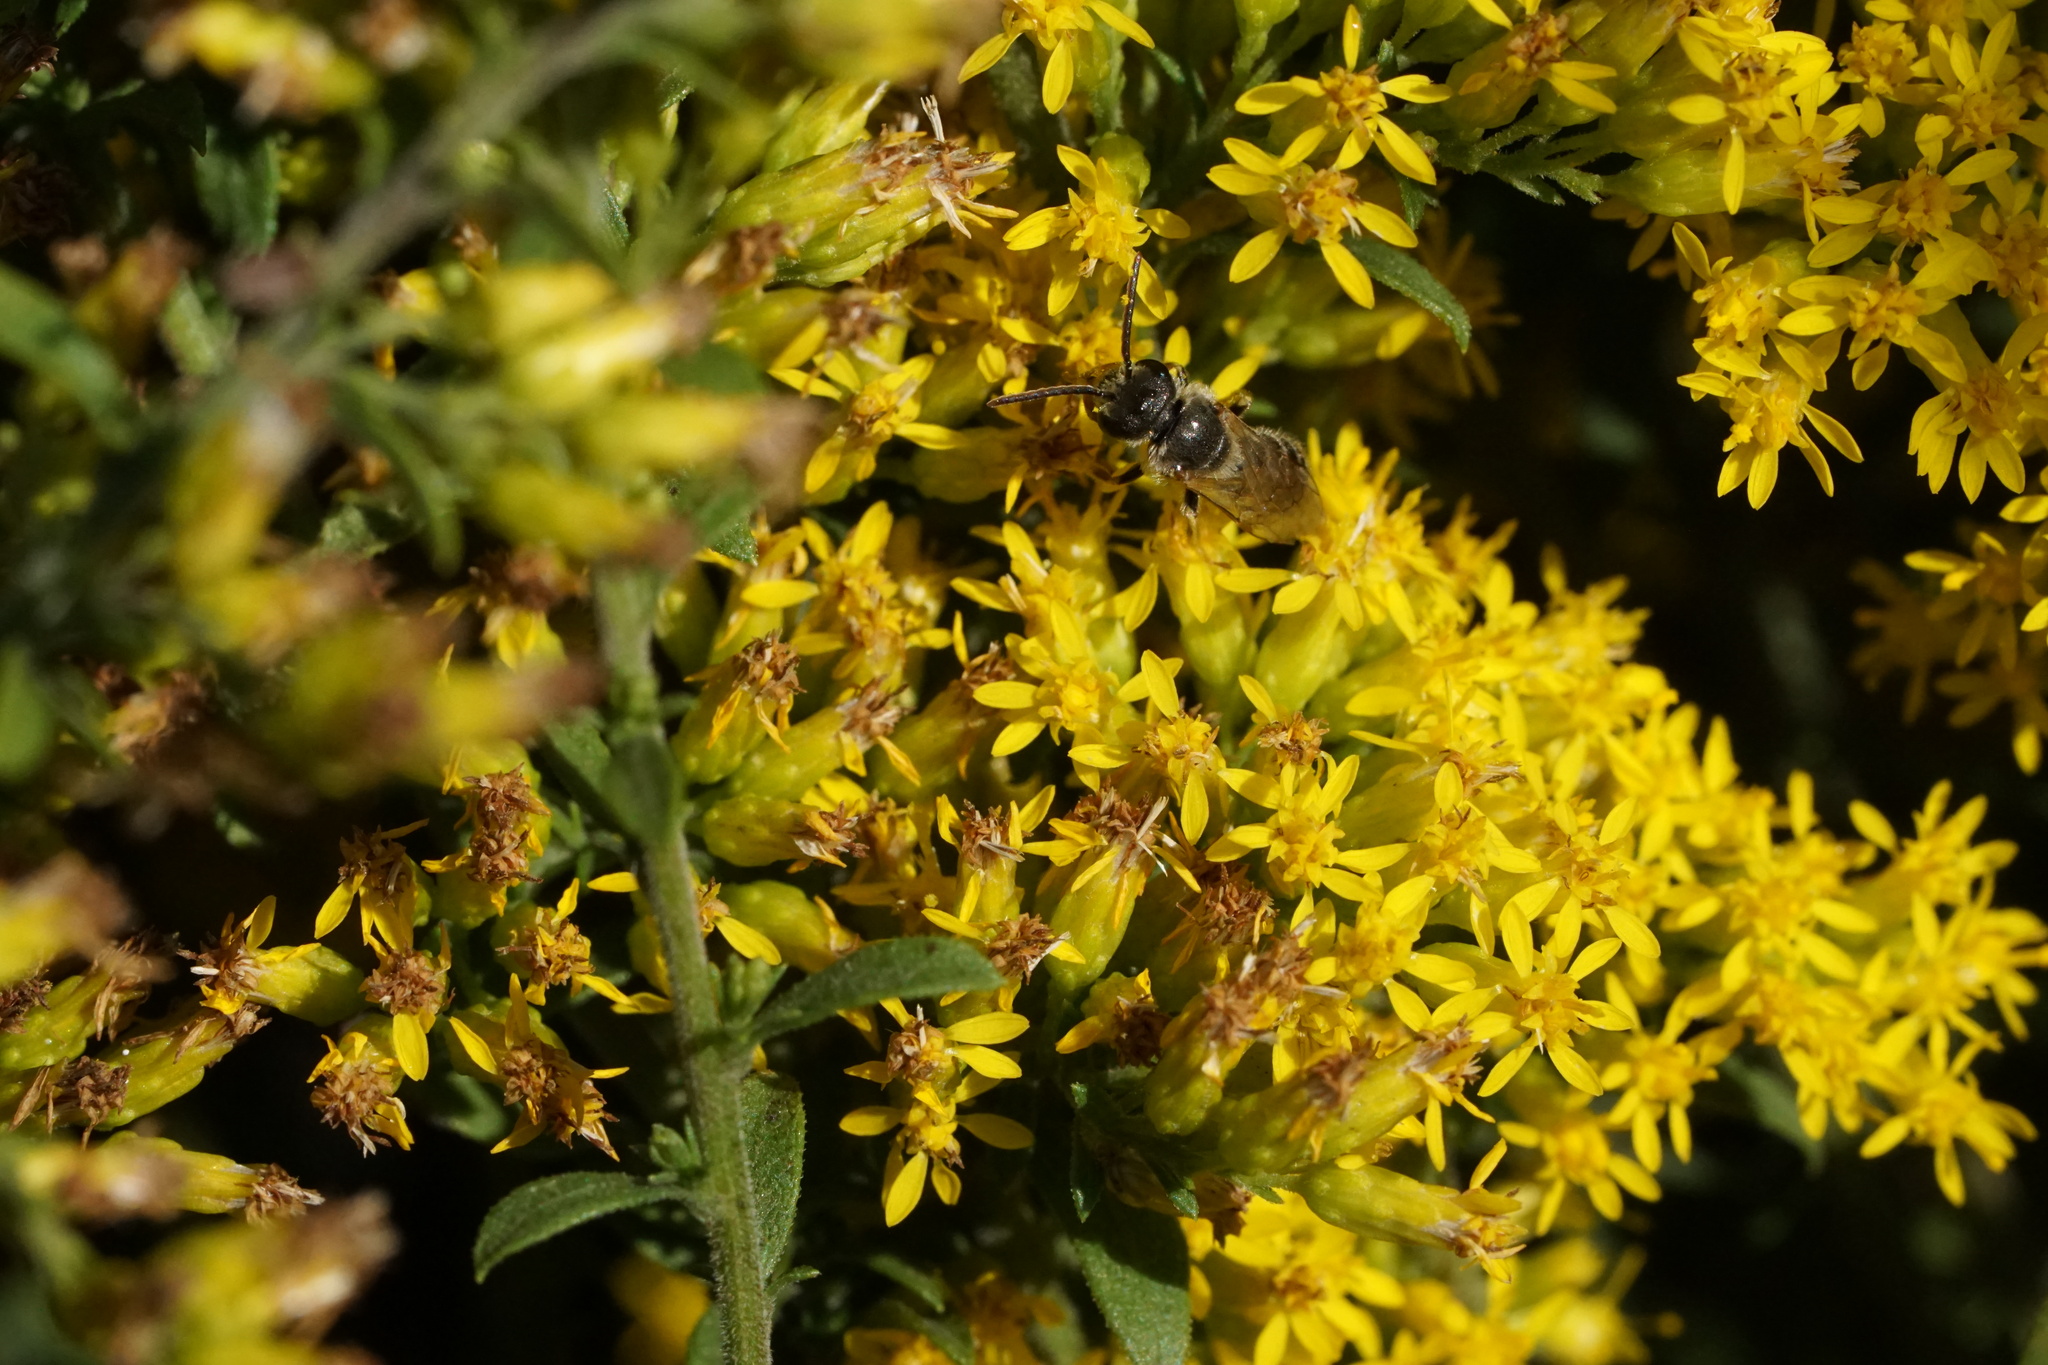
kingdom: Animalia
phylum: Arthropoda
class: Insecta
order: Hymenoptera
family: Eumenidae
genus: Polistes
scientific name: Polistes fuscatus
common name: Dark paper wasp
